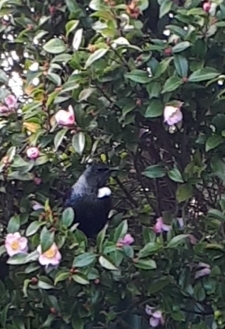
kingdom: Animalia
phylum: Chordata
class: Aves
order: Passeriformes
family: Meliphagidae
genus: Prosthemadera
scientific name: Prosthemadera novaeseelandiae
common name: Tui
